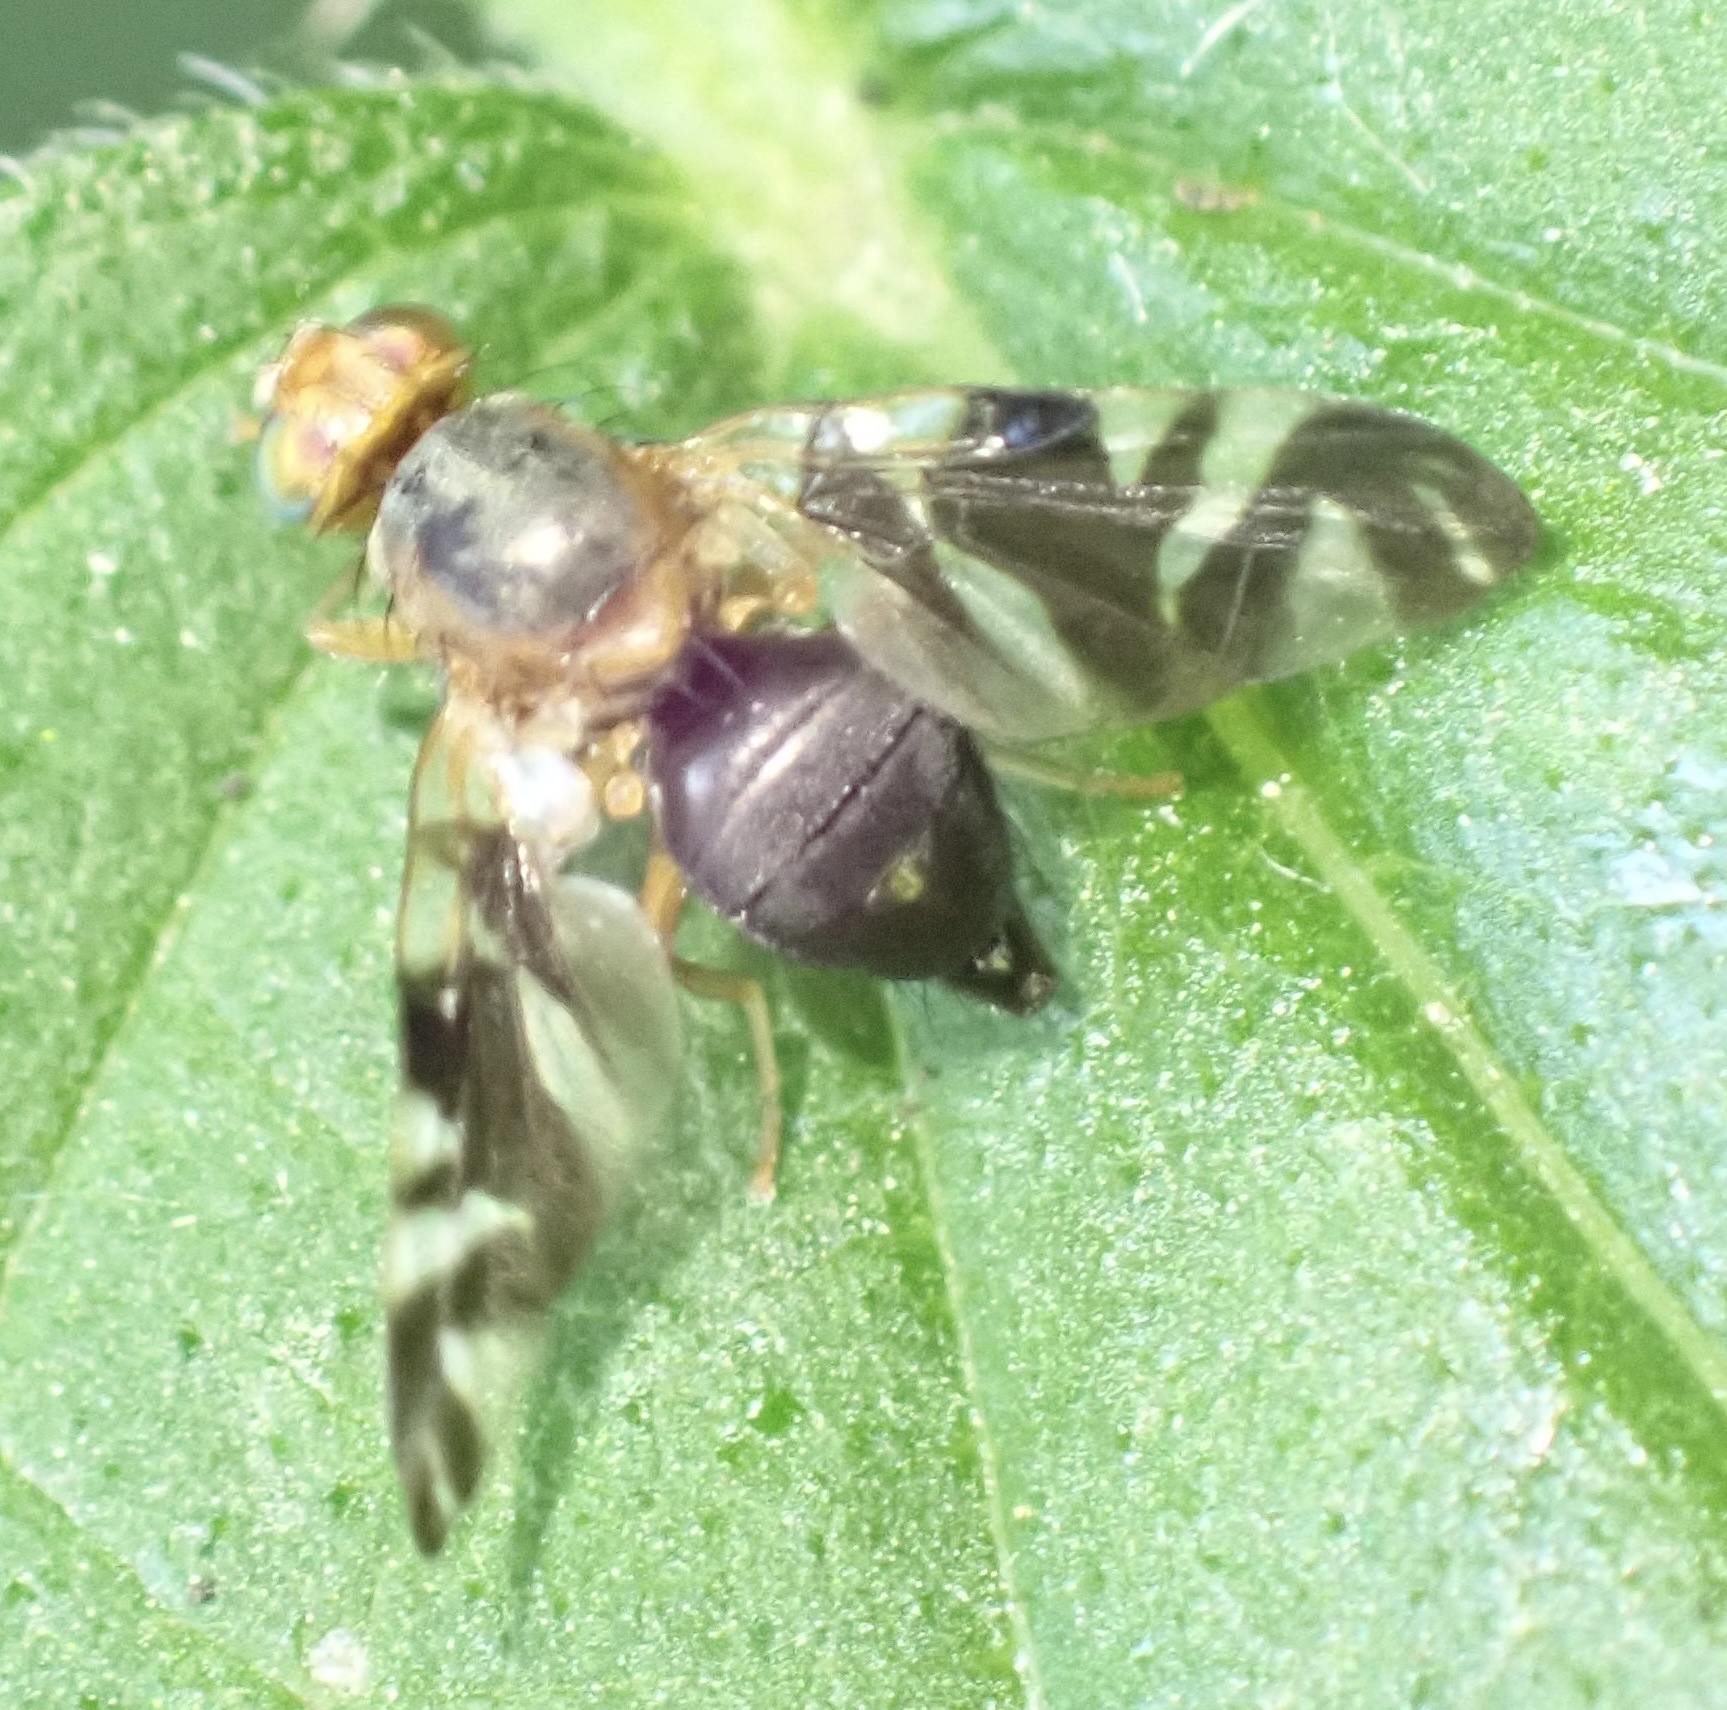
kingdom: Animalia
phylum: Arthropoda
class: Insecta
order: Diptera
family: Tephritidae
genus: Philophylla
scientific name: Philophylla caesio
